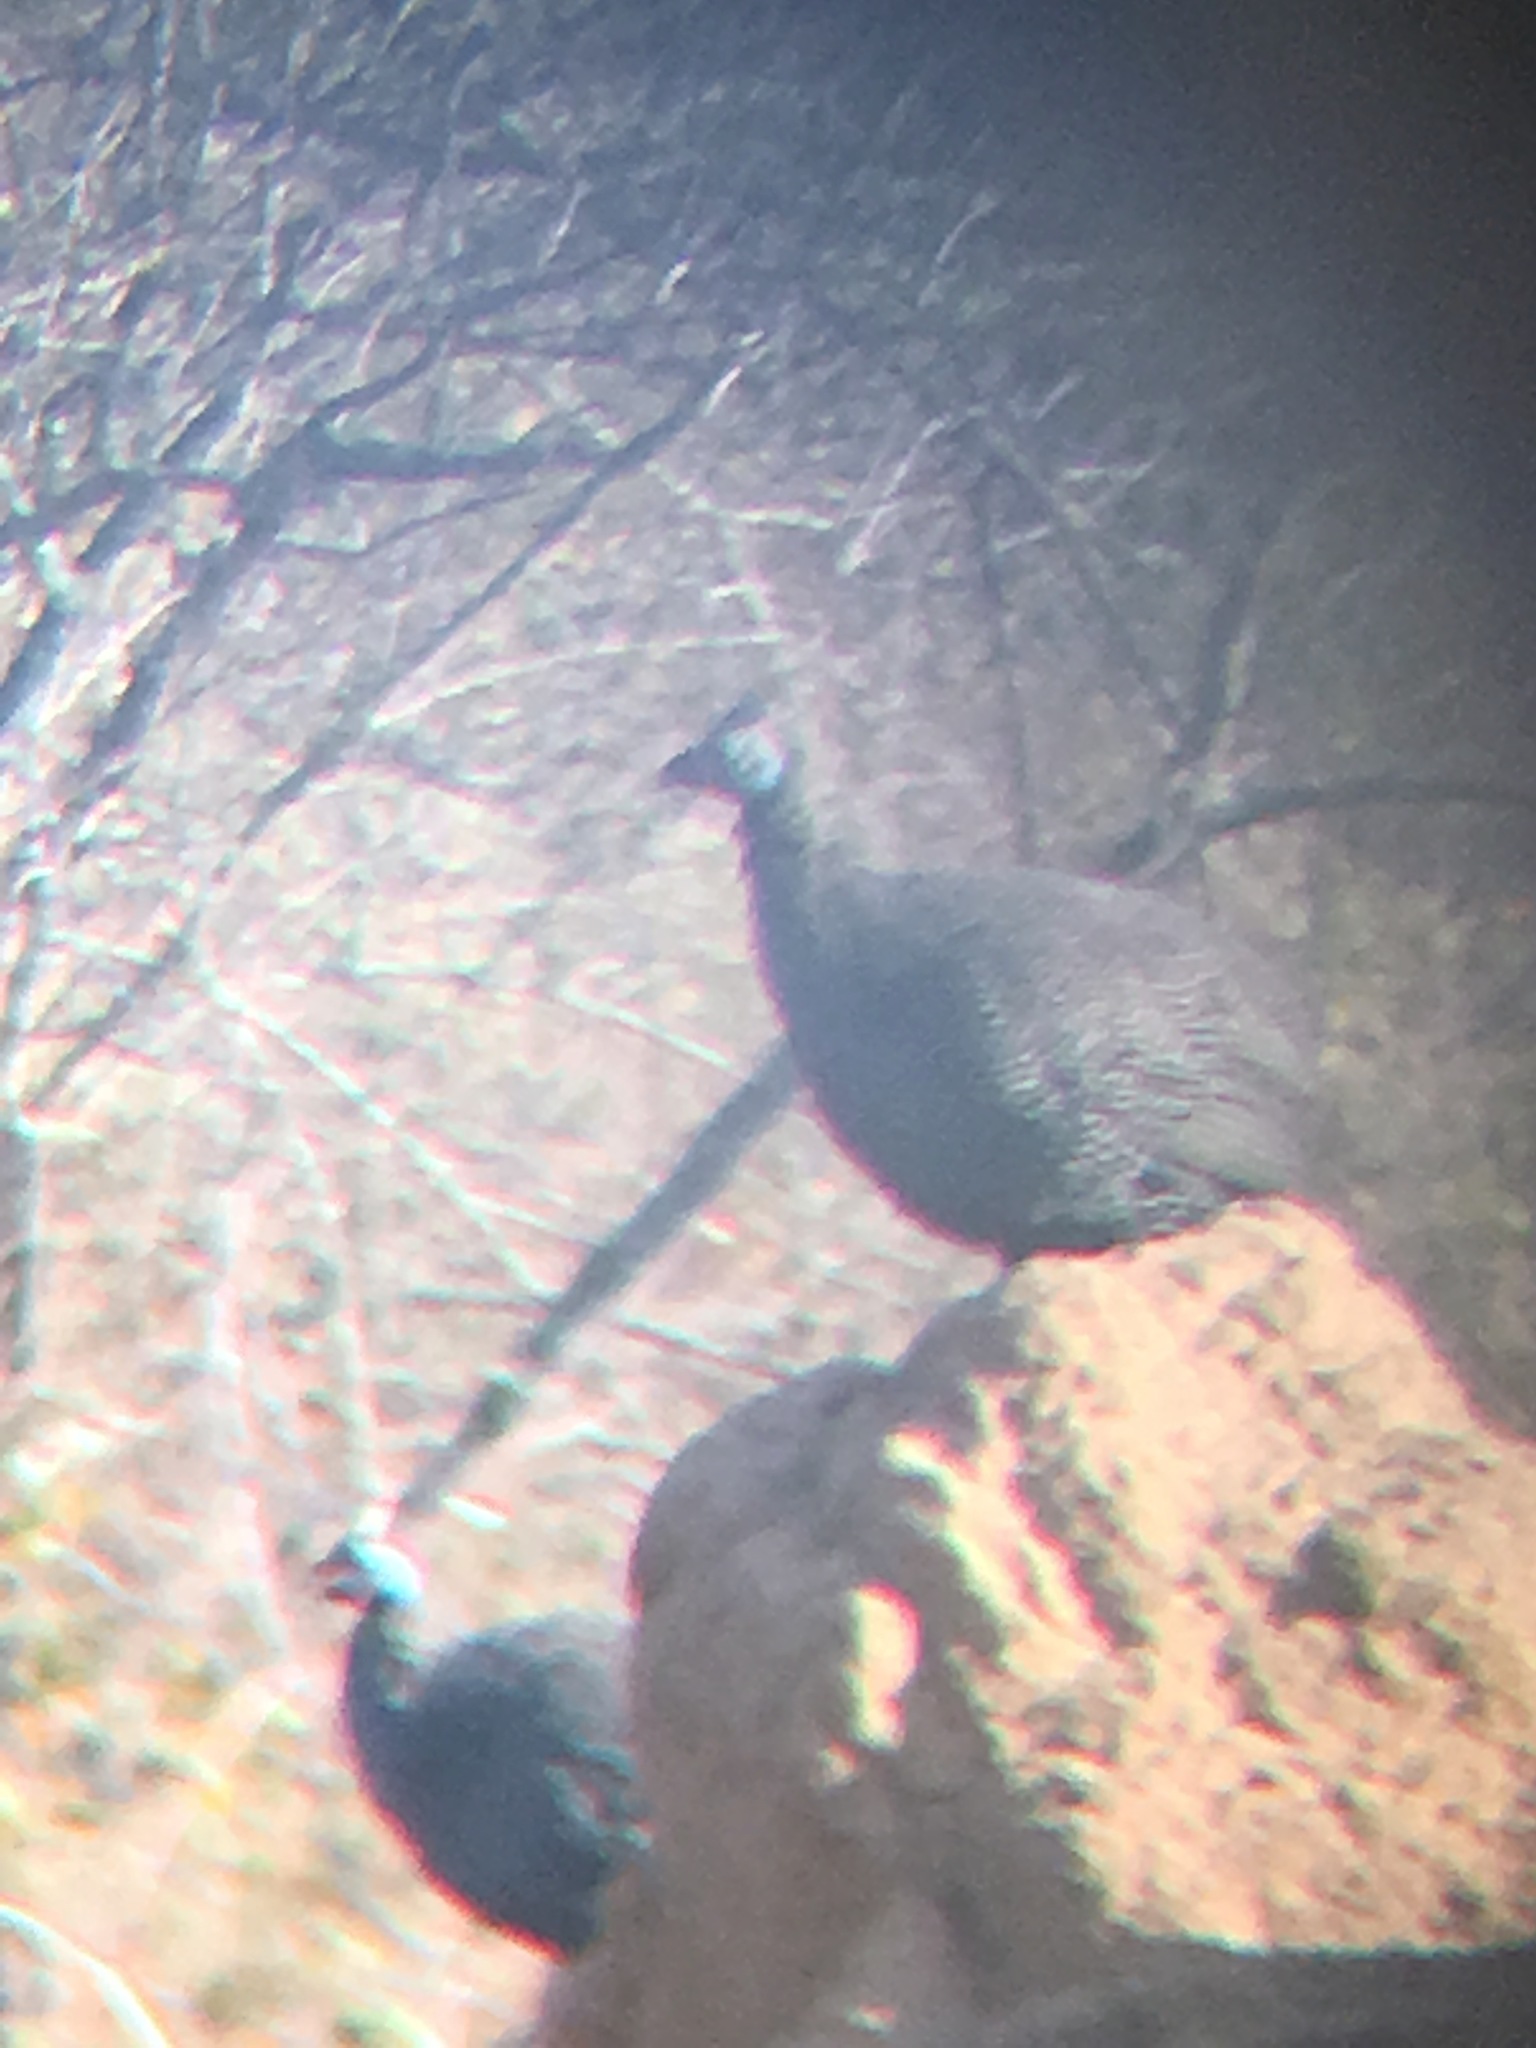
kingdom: Animalia
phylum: Chordata
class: Aves
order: Galliformes
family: Numididae
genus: Numida
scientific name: Numida meleagris
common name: Helmeted guineafowl
